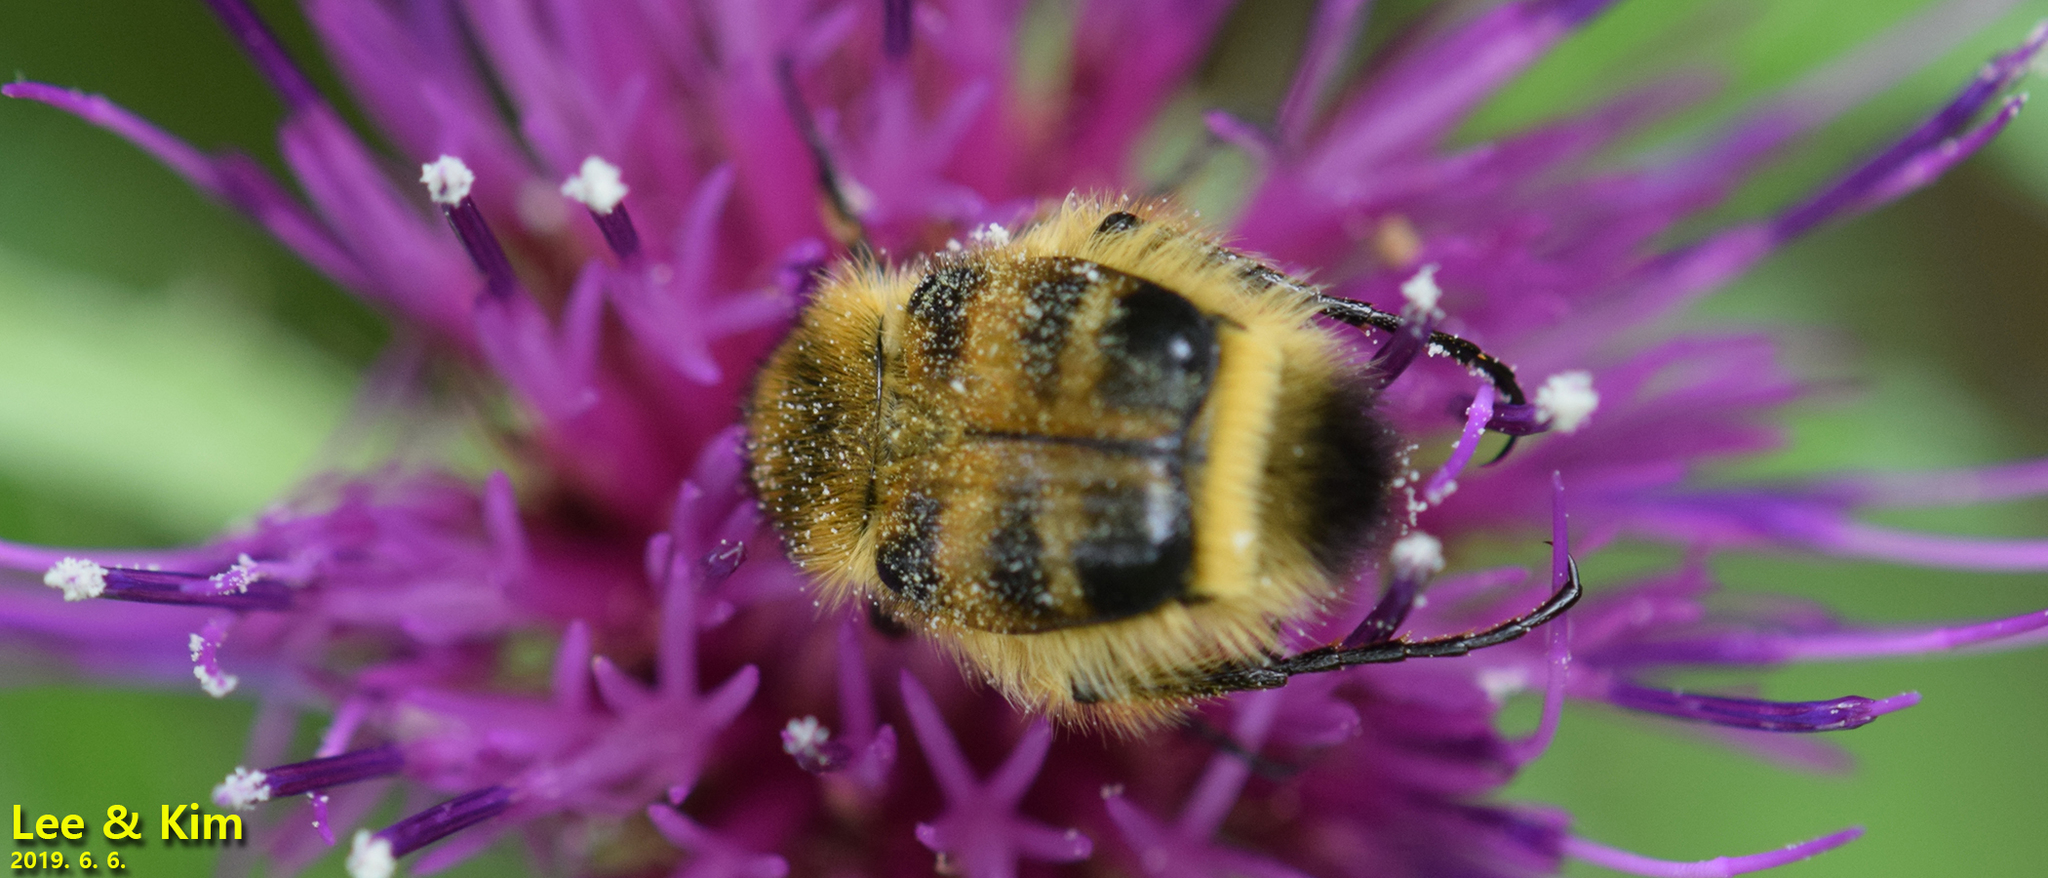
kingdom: Animalia
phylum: Arthropoda
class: Insecta
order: Coleoptera
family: Scarabaeidae
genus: Lasiotrichius
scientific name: Lasiotrichius succinctus
